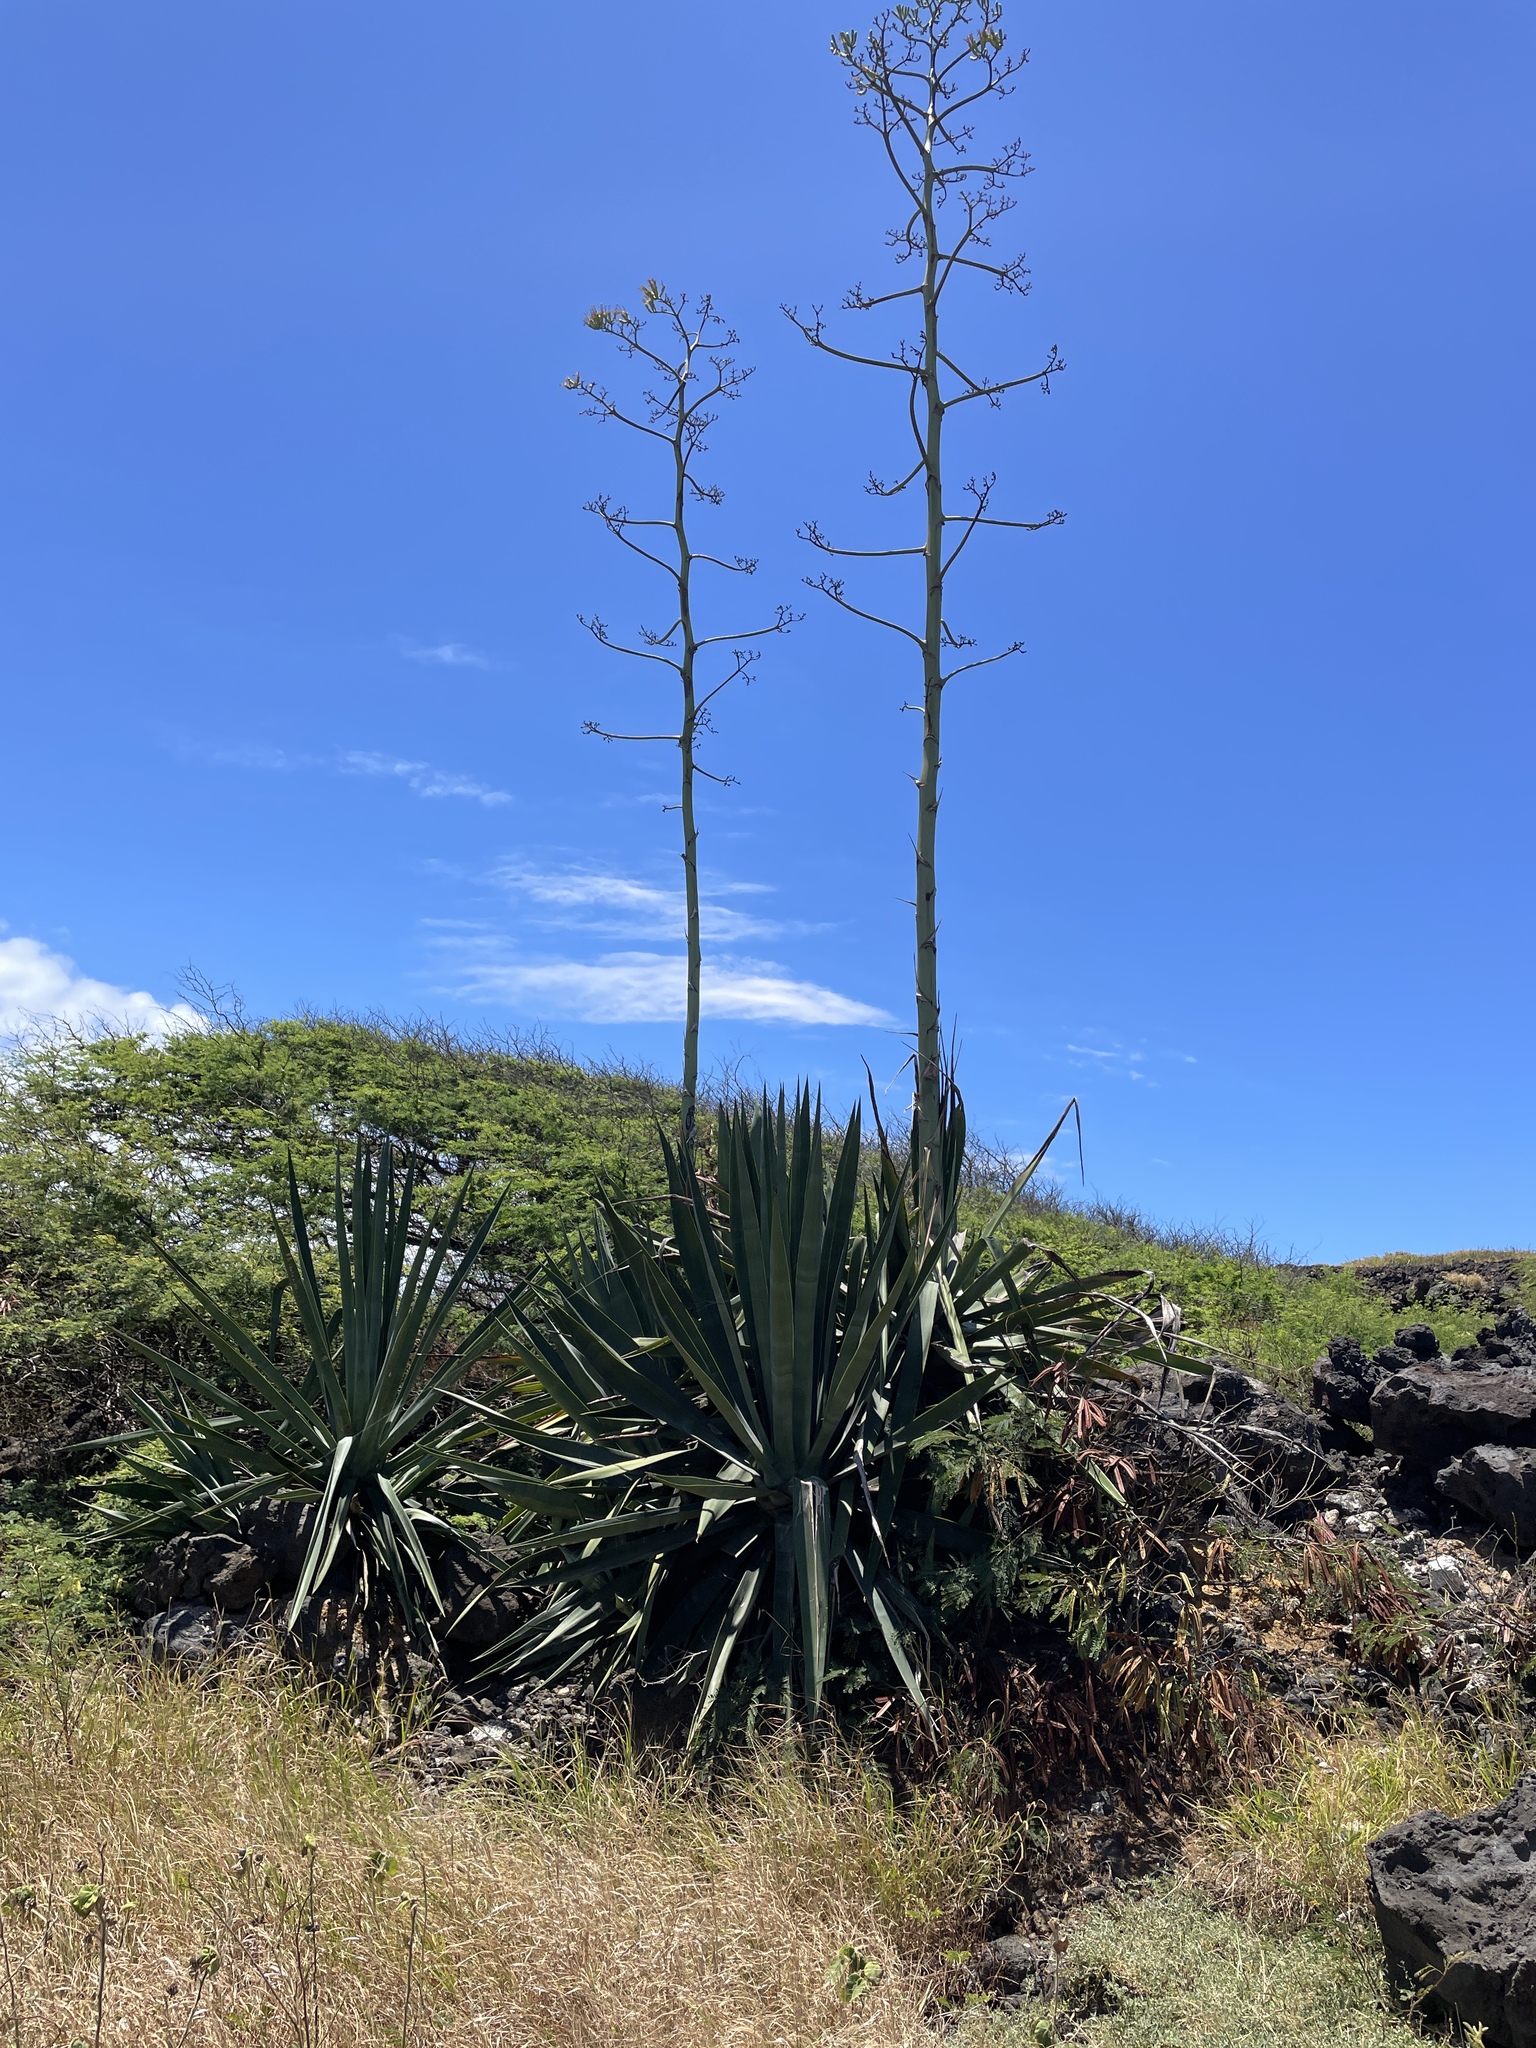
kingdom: Plantae
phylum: Tracheophyta
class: Liliopsida
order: Asparagales
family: Asparagaceae
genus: Agave
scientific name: Agave sisalana
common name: Sisal hemp
